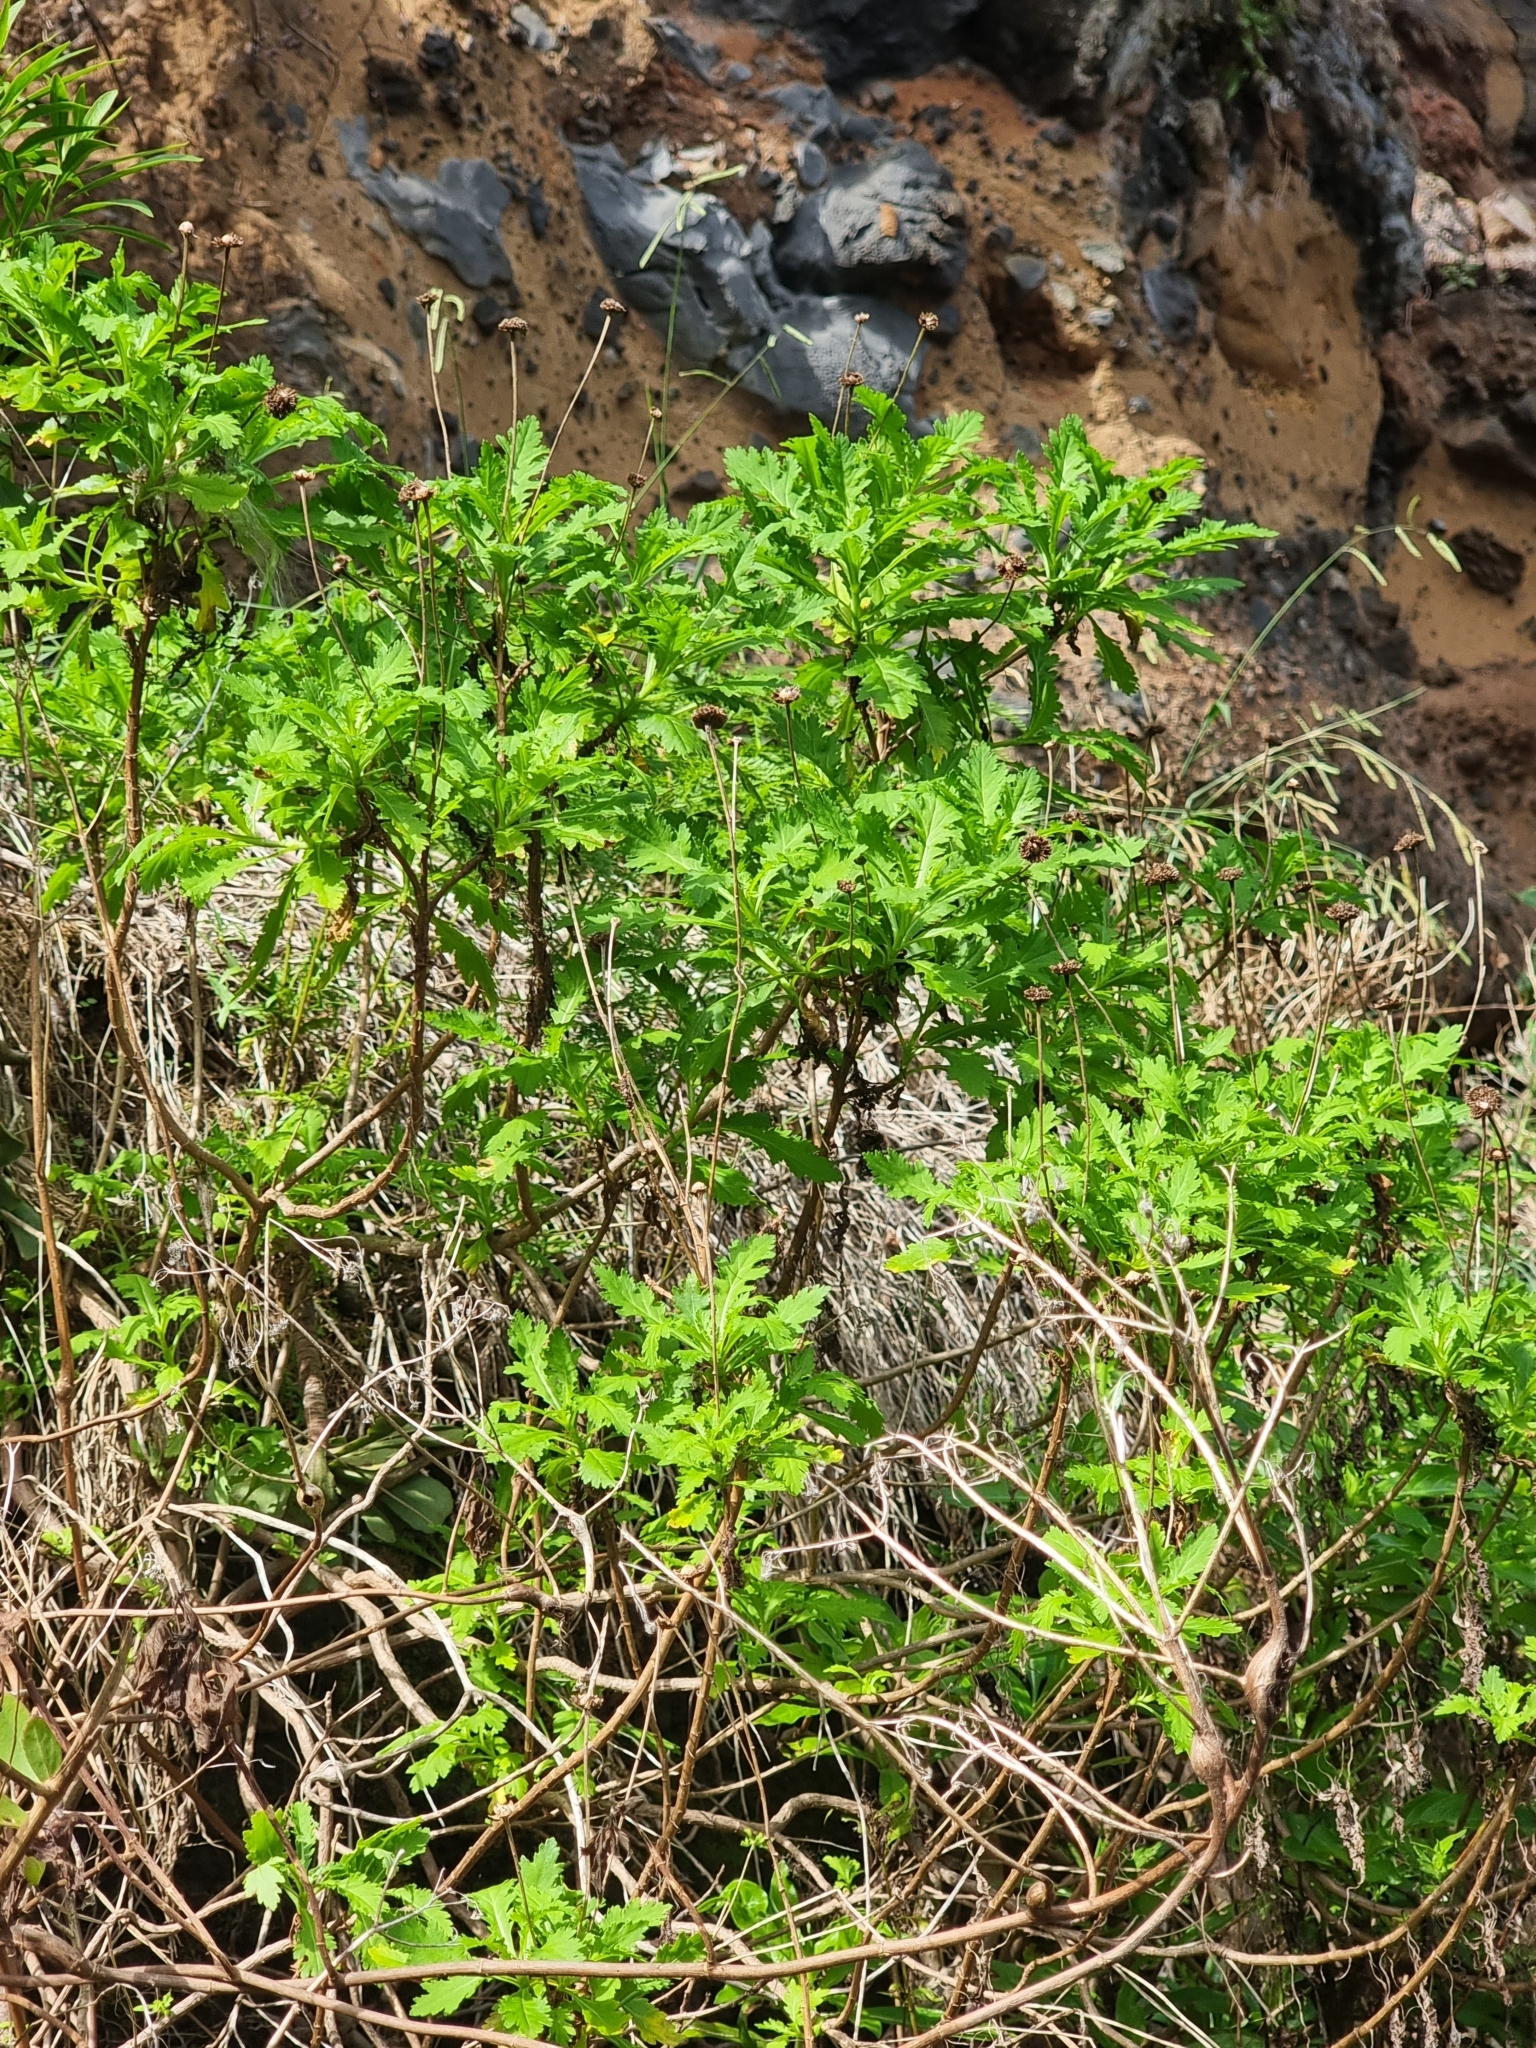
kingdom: Plantae
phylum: Tracheophyta
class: Magnoliopsida
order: Asterales
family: Asteraceae
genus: Argyranthemum
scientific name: Argyranthemum pinnatifidum
